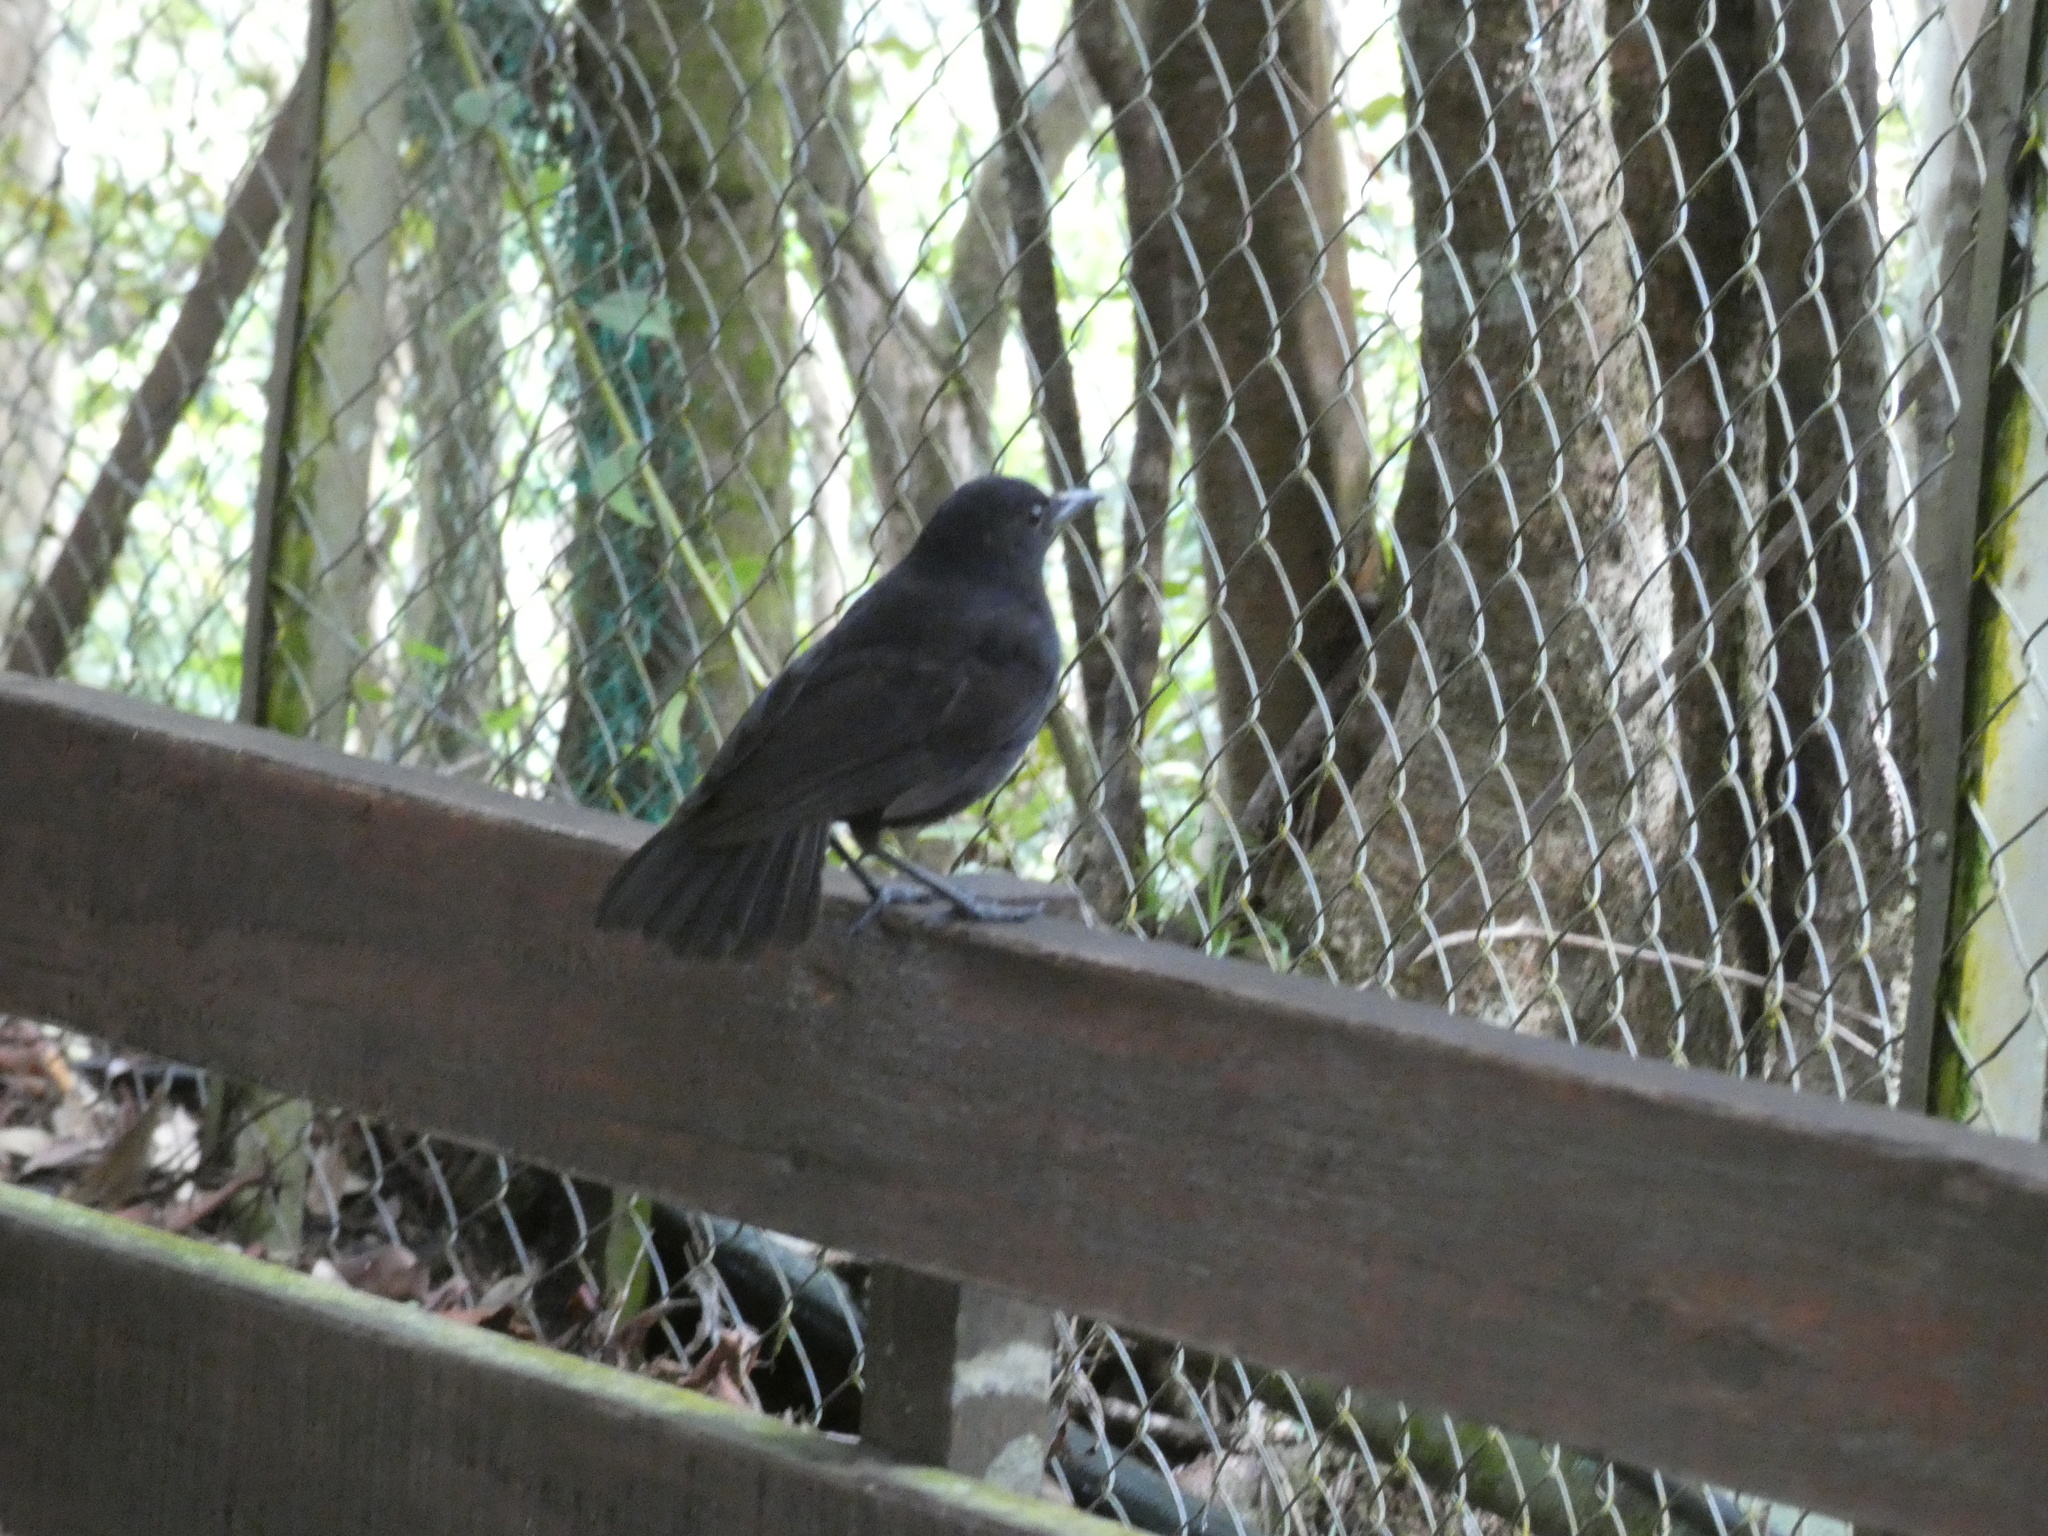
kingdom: Animalia
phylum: Chordata
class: Aves
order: Passeriformes
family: Muscicapidae
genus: Myophonus
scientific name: Myophonus borneensis
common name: Bornean whistling-thrush
